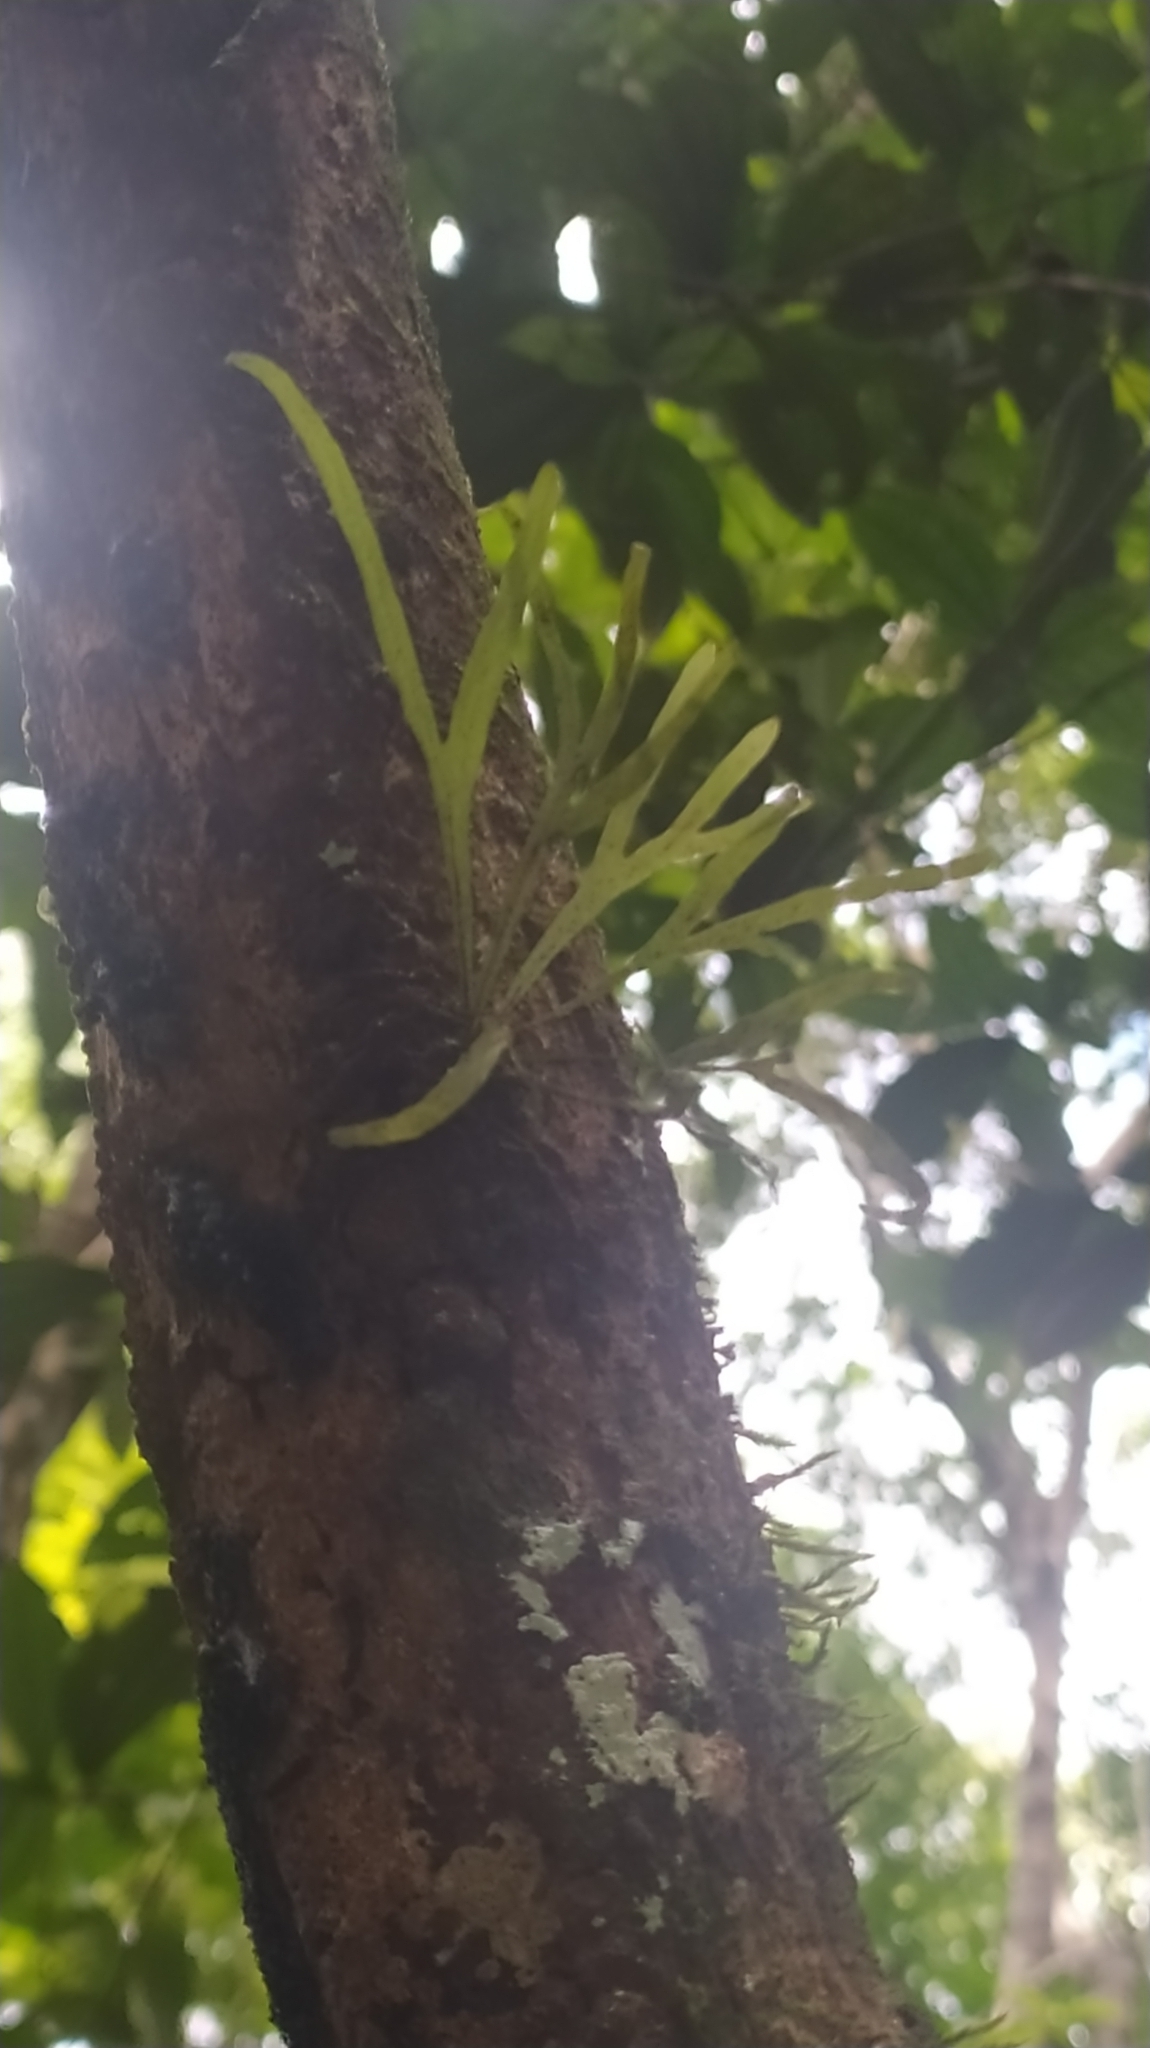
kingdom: Plantae
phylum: Tracheophyta
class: Polypodiopsida
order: Polypodiales
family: Polypodiaceae
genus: Pleopeltis
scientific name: Pleopeltis desvauxii
